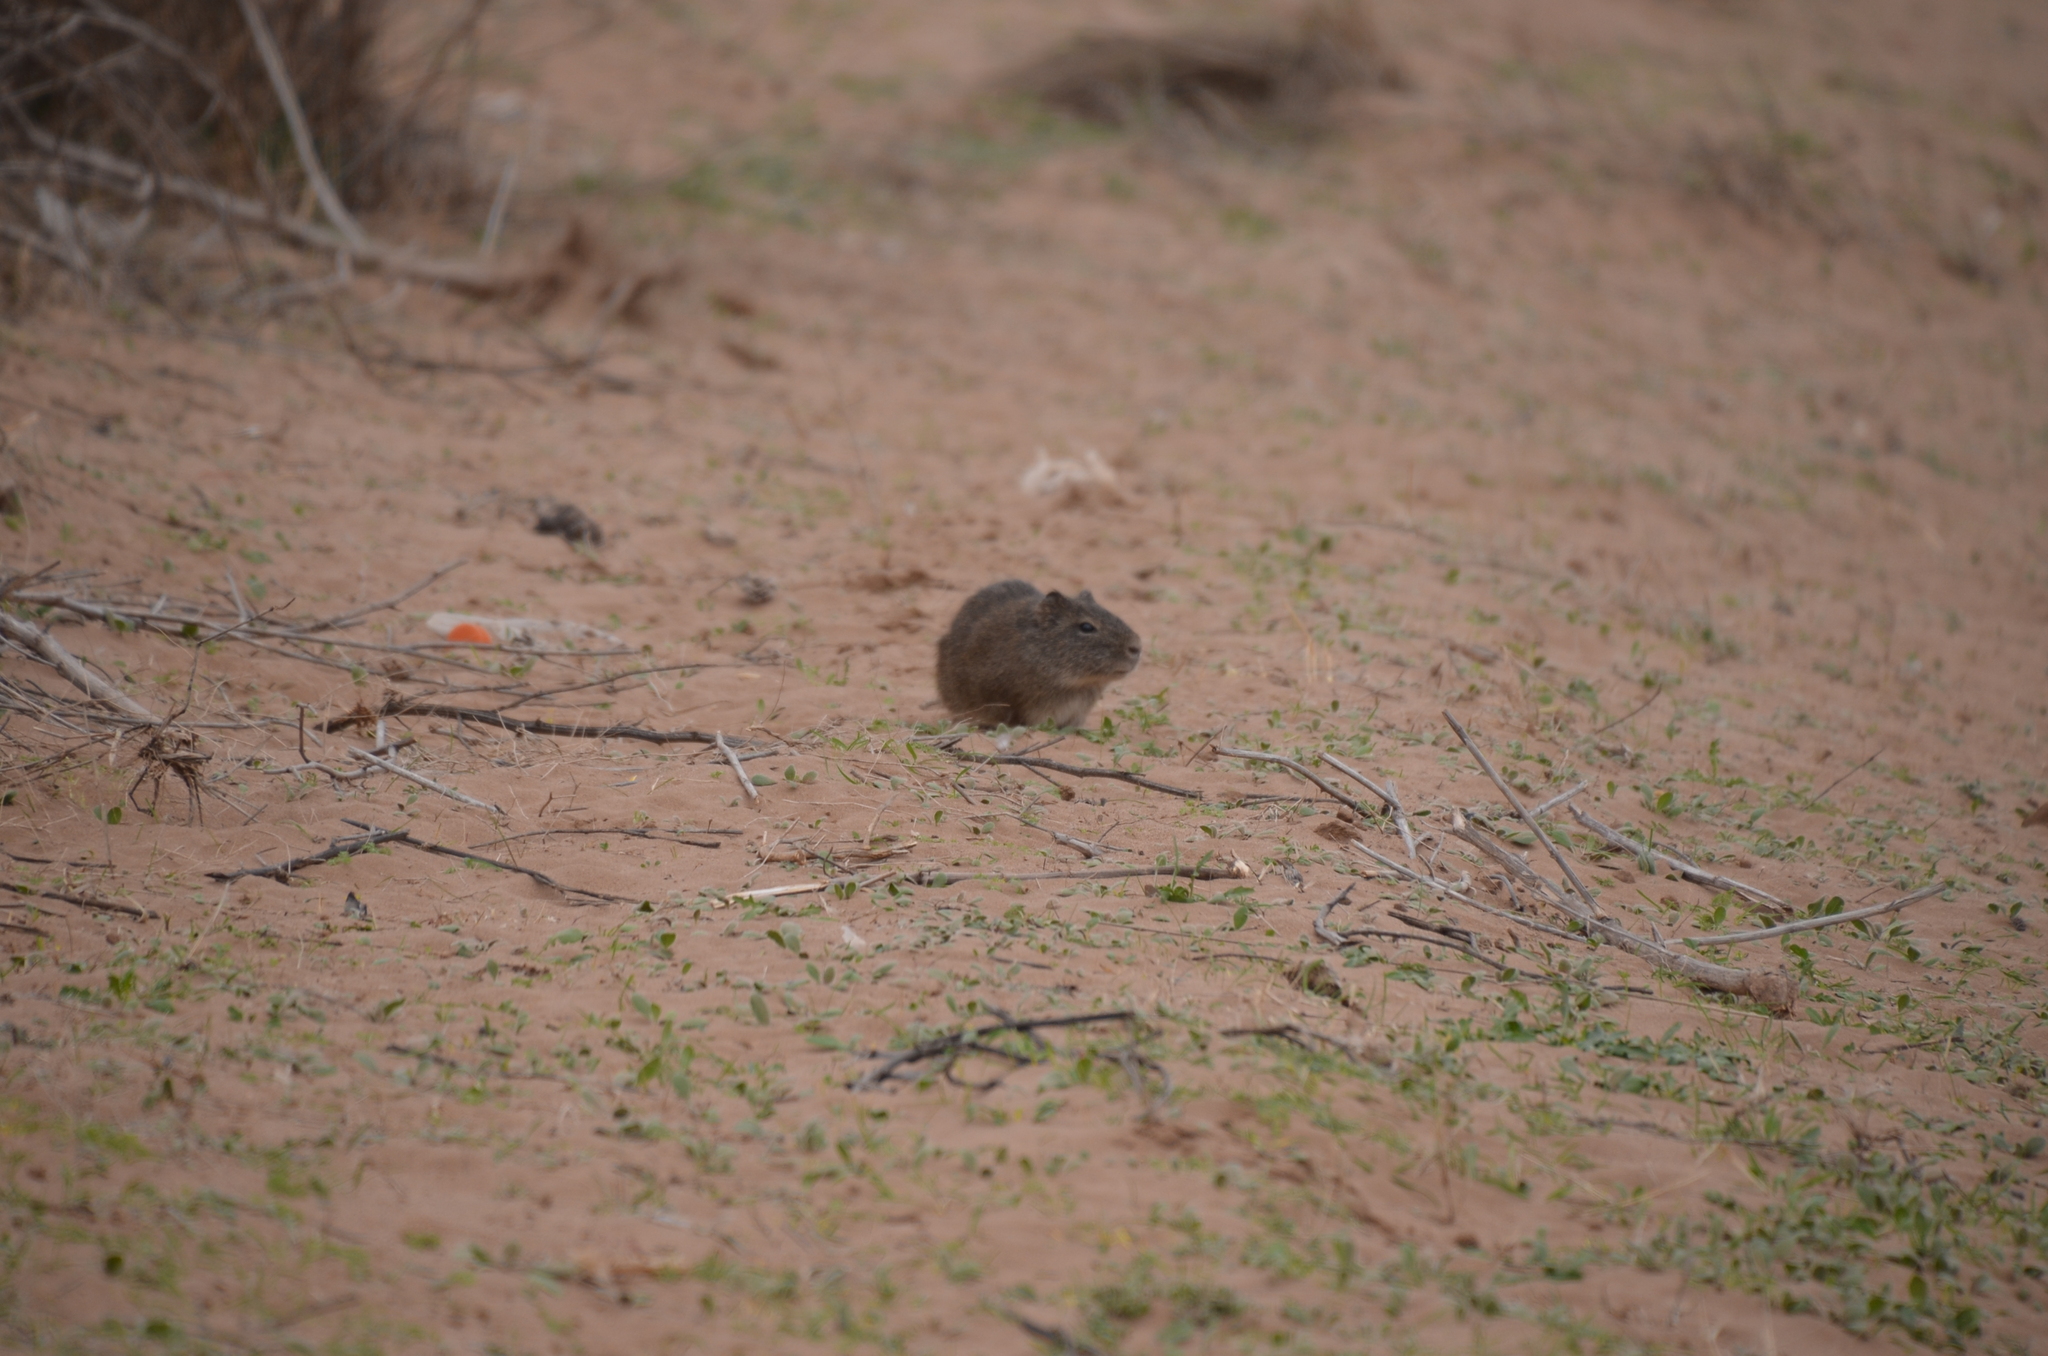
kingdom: Animalia
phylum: Chordata
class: Mammalia
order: Rodentia
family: Caviidae
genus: Cavia
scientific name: Cavia aperea
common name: Brazilian guinea pig
